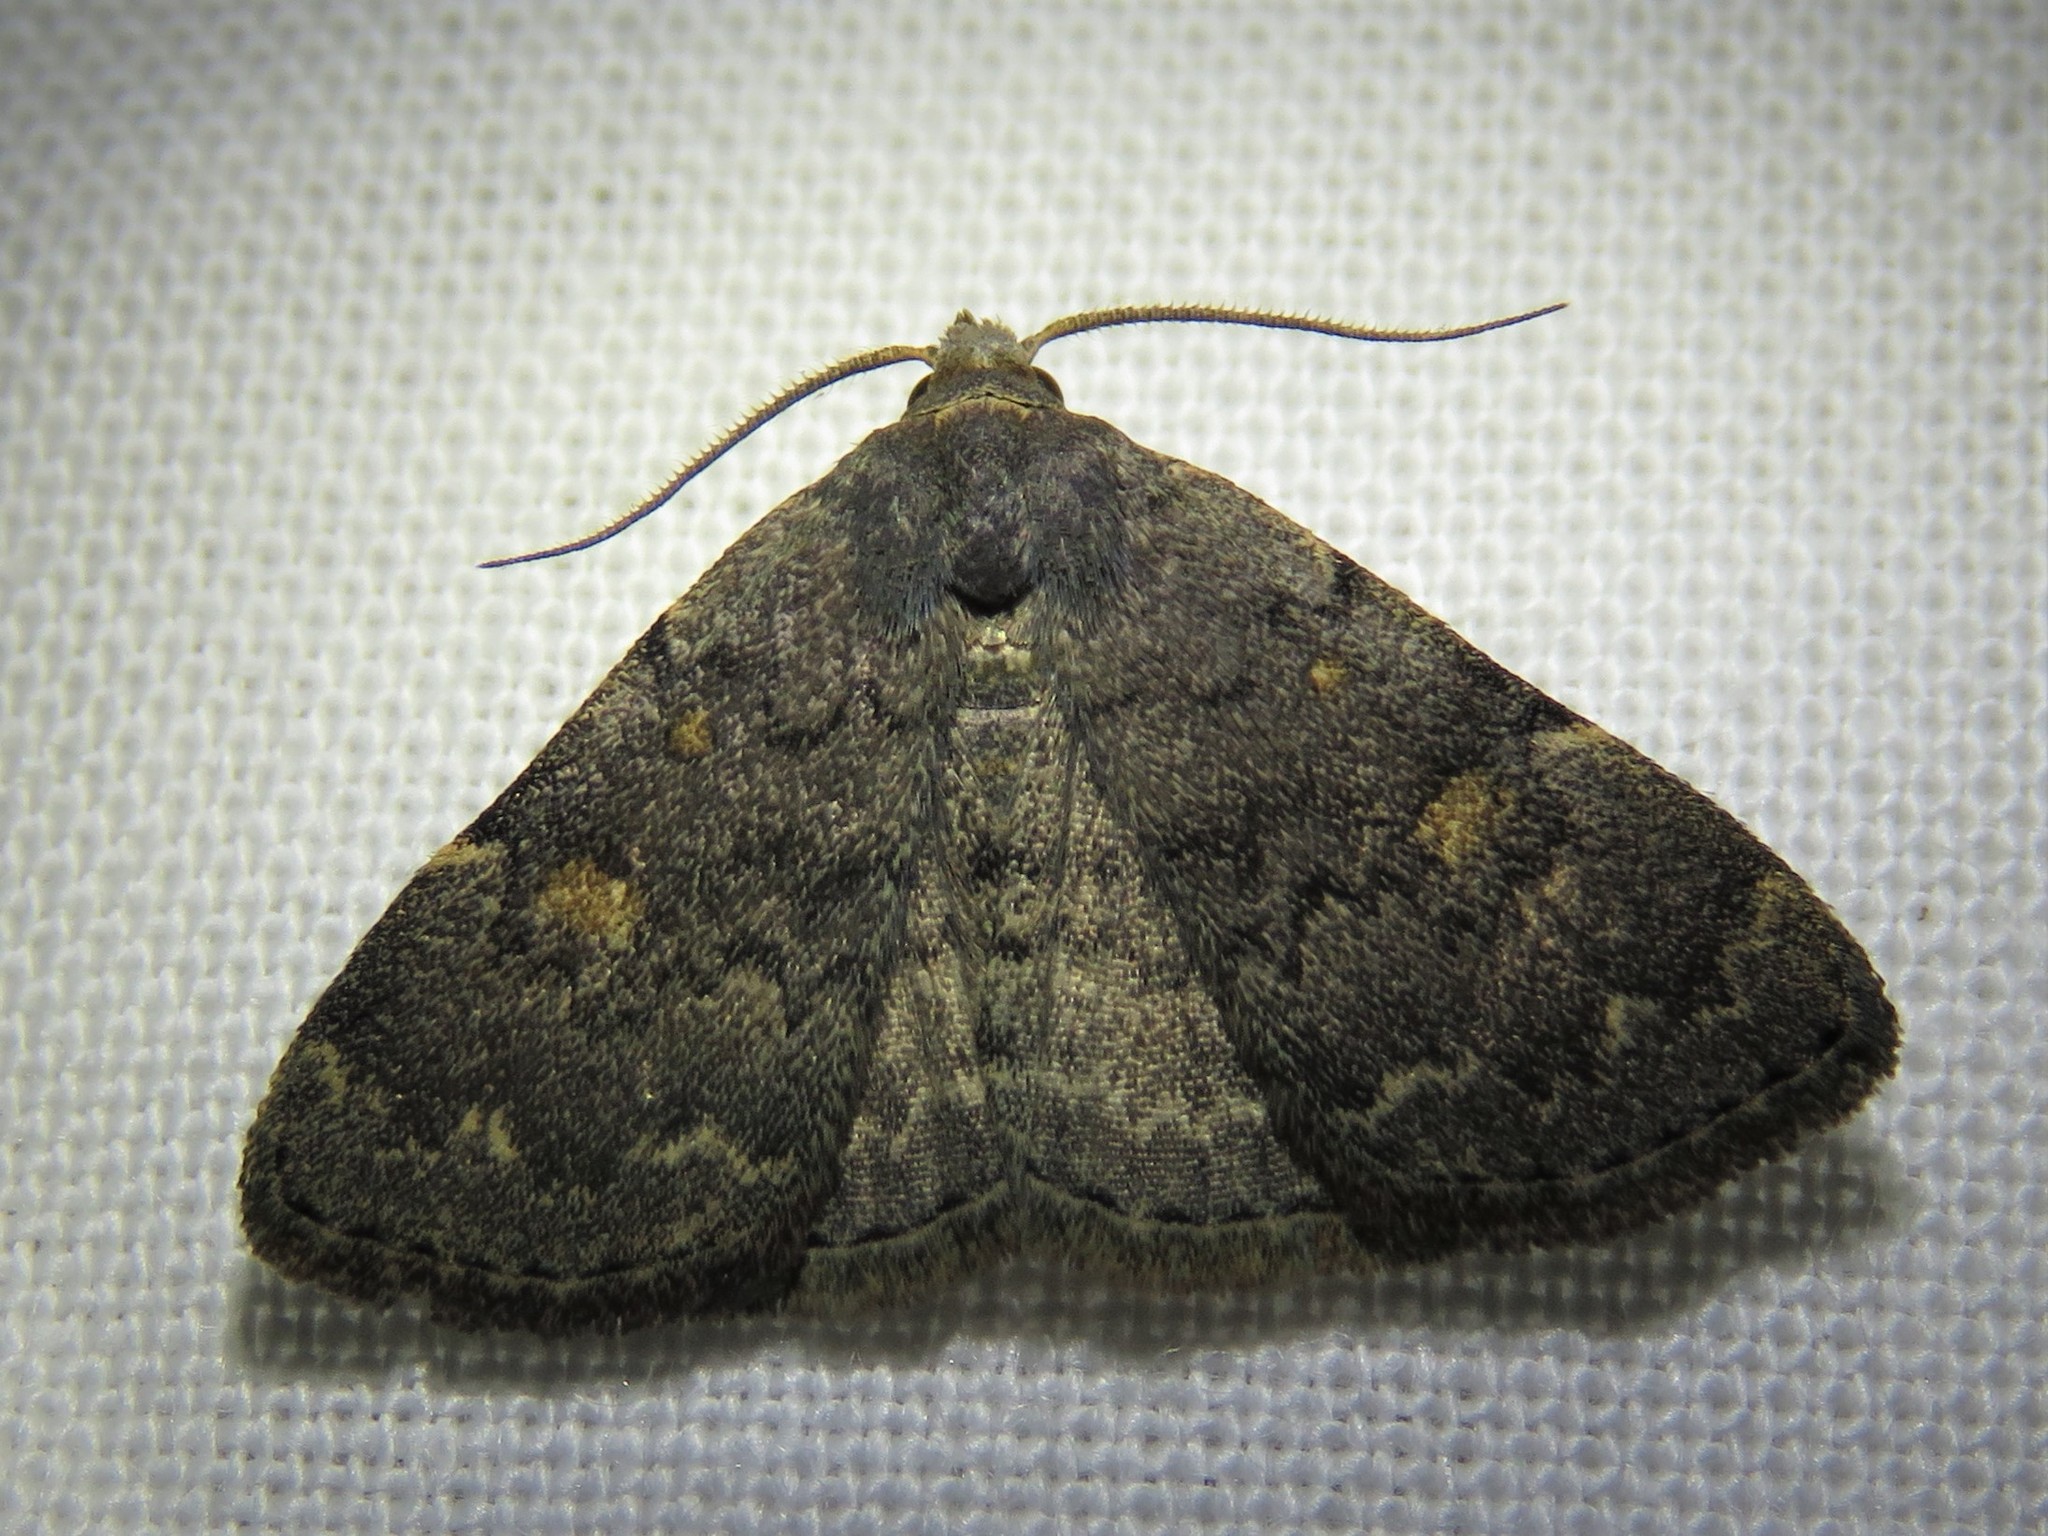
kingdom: Animalia
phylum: Arthropoda
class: Insecta
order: Lepidoptera
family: Erebidae
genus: Idia
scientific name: Idia aemula
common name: Common idia moth
